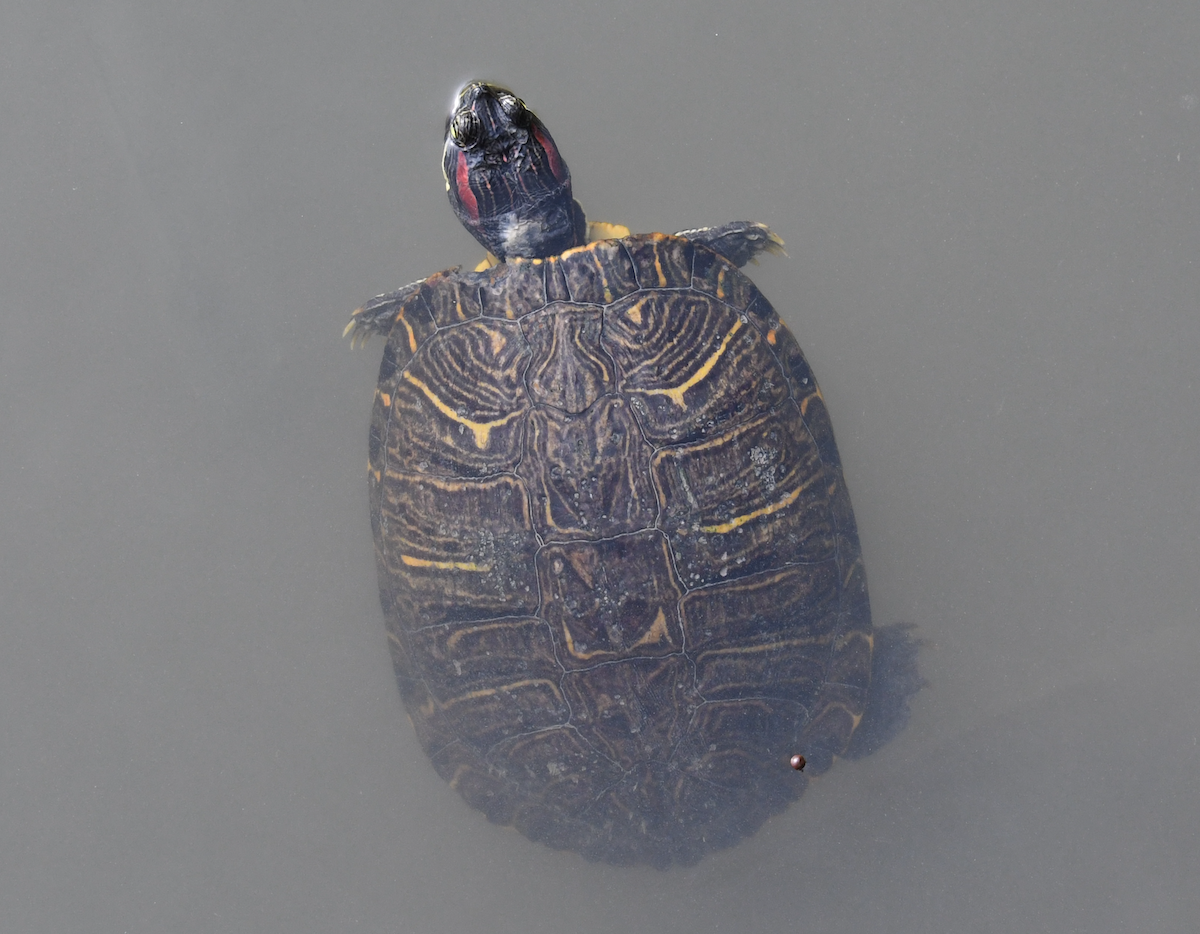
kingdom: Animalia
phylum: Chordata
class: Testudines
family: Emydidae
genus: Trachemys
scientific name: Trachemys scripta
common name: Slider
